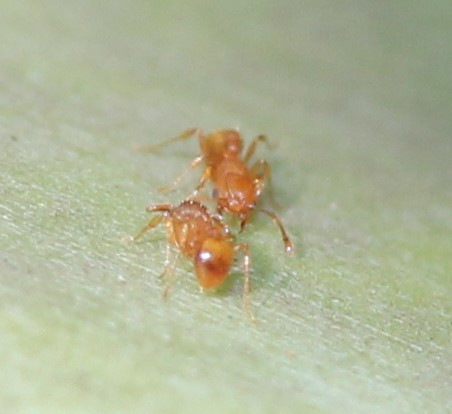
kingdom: Animalia
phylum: Arthropoda
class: Insecta
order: Hymenoptera
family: Formicidae
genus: Wasmannia
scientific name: Wasmannia auropunctata
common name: Little fire ant
